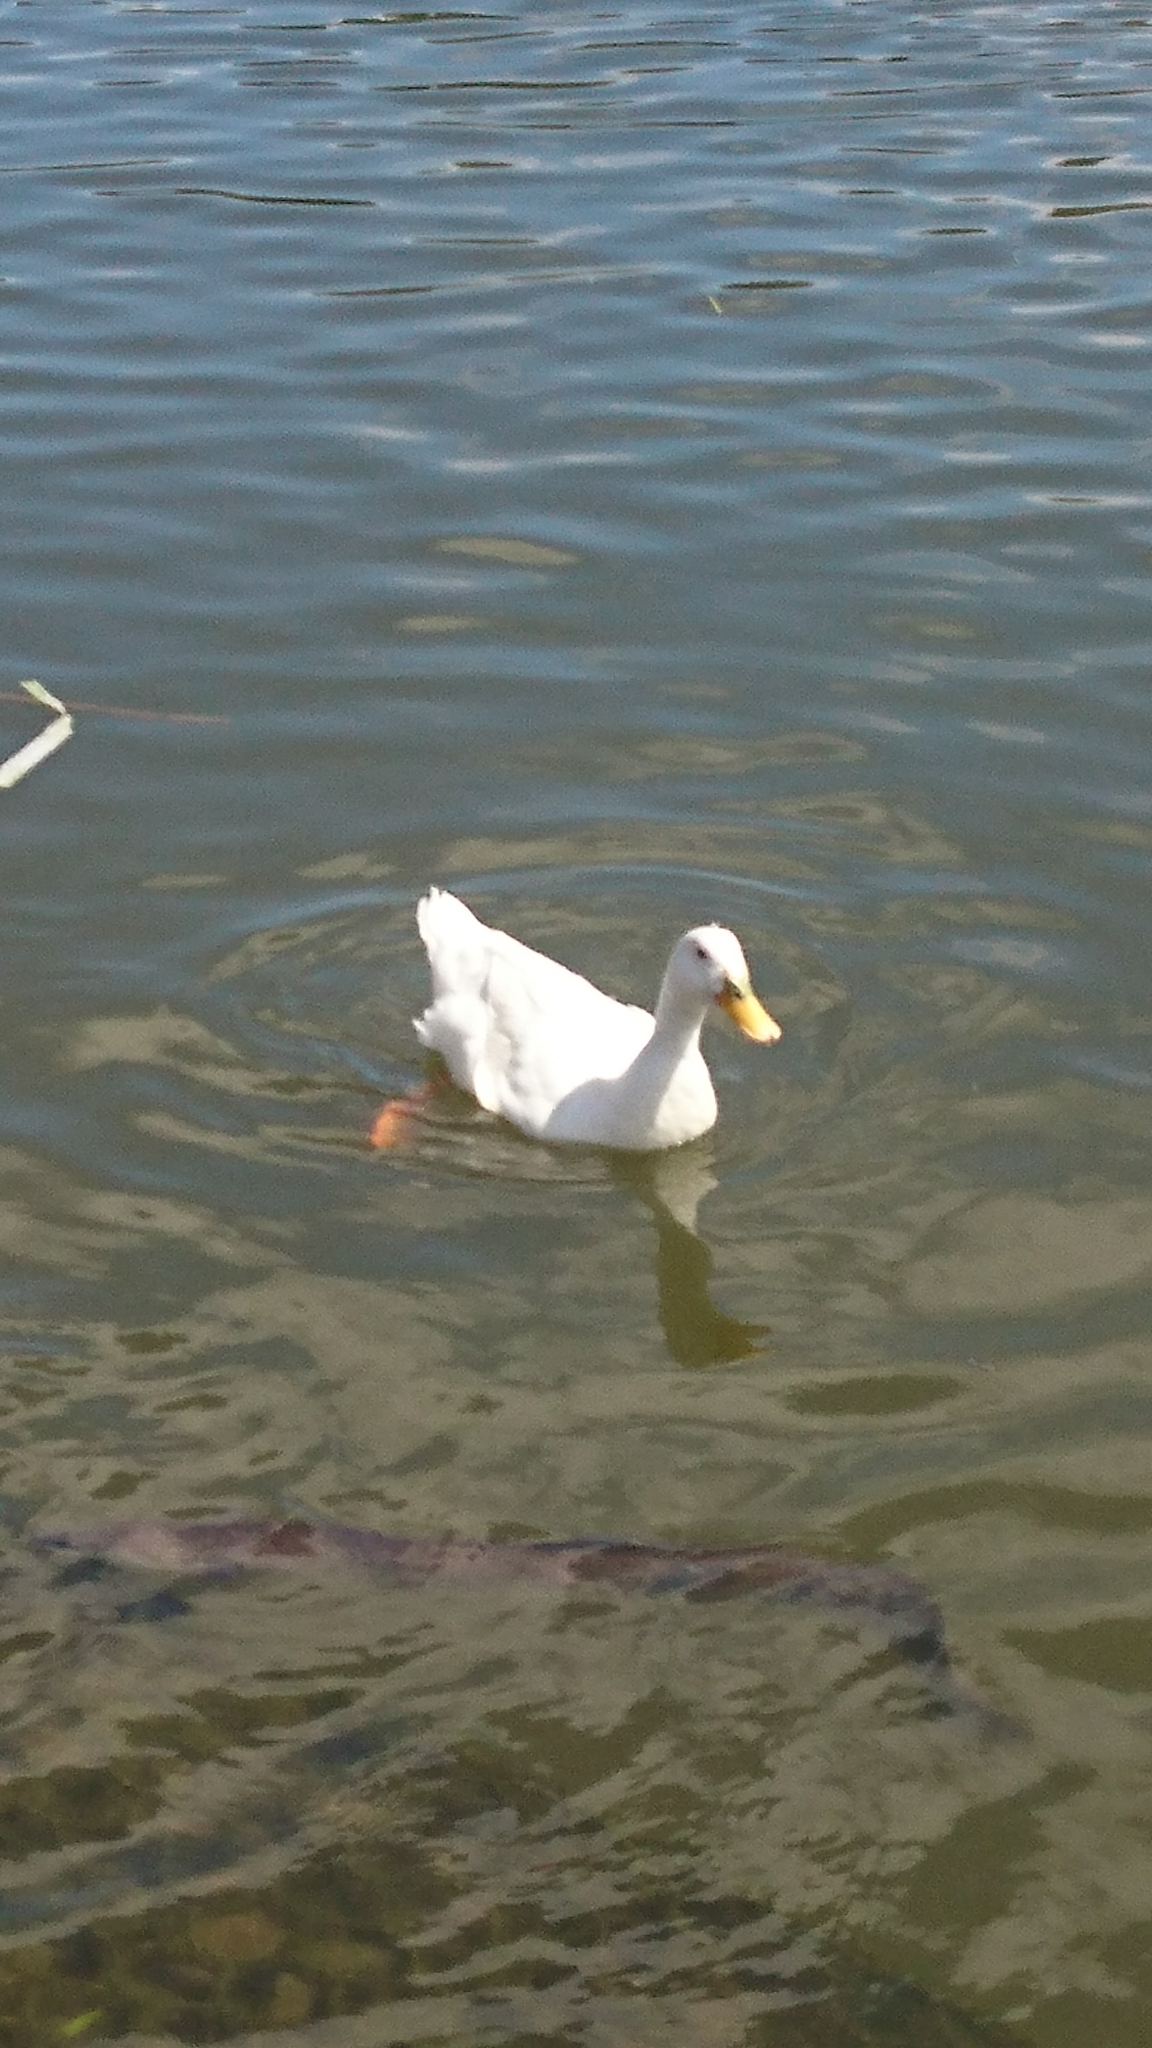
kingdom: Animalia
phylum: Chordata
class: Aves
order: Anseriformes
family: Anatidae
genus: Anas
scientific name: Anas platyrhynchos
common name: Mallard
